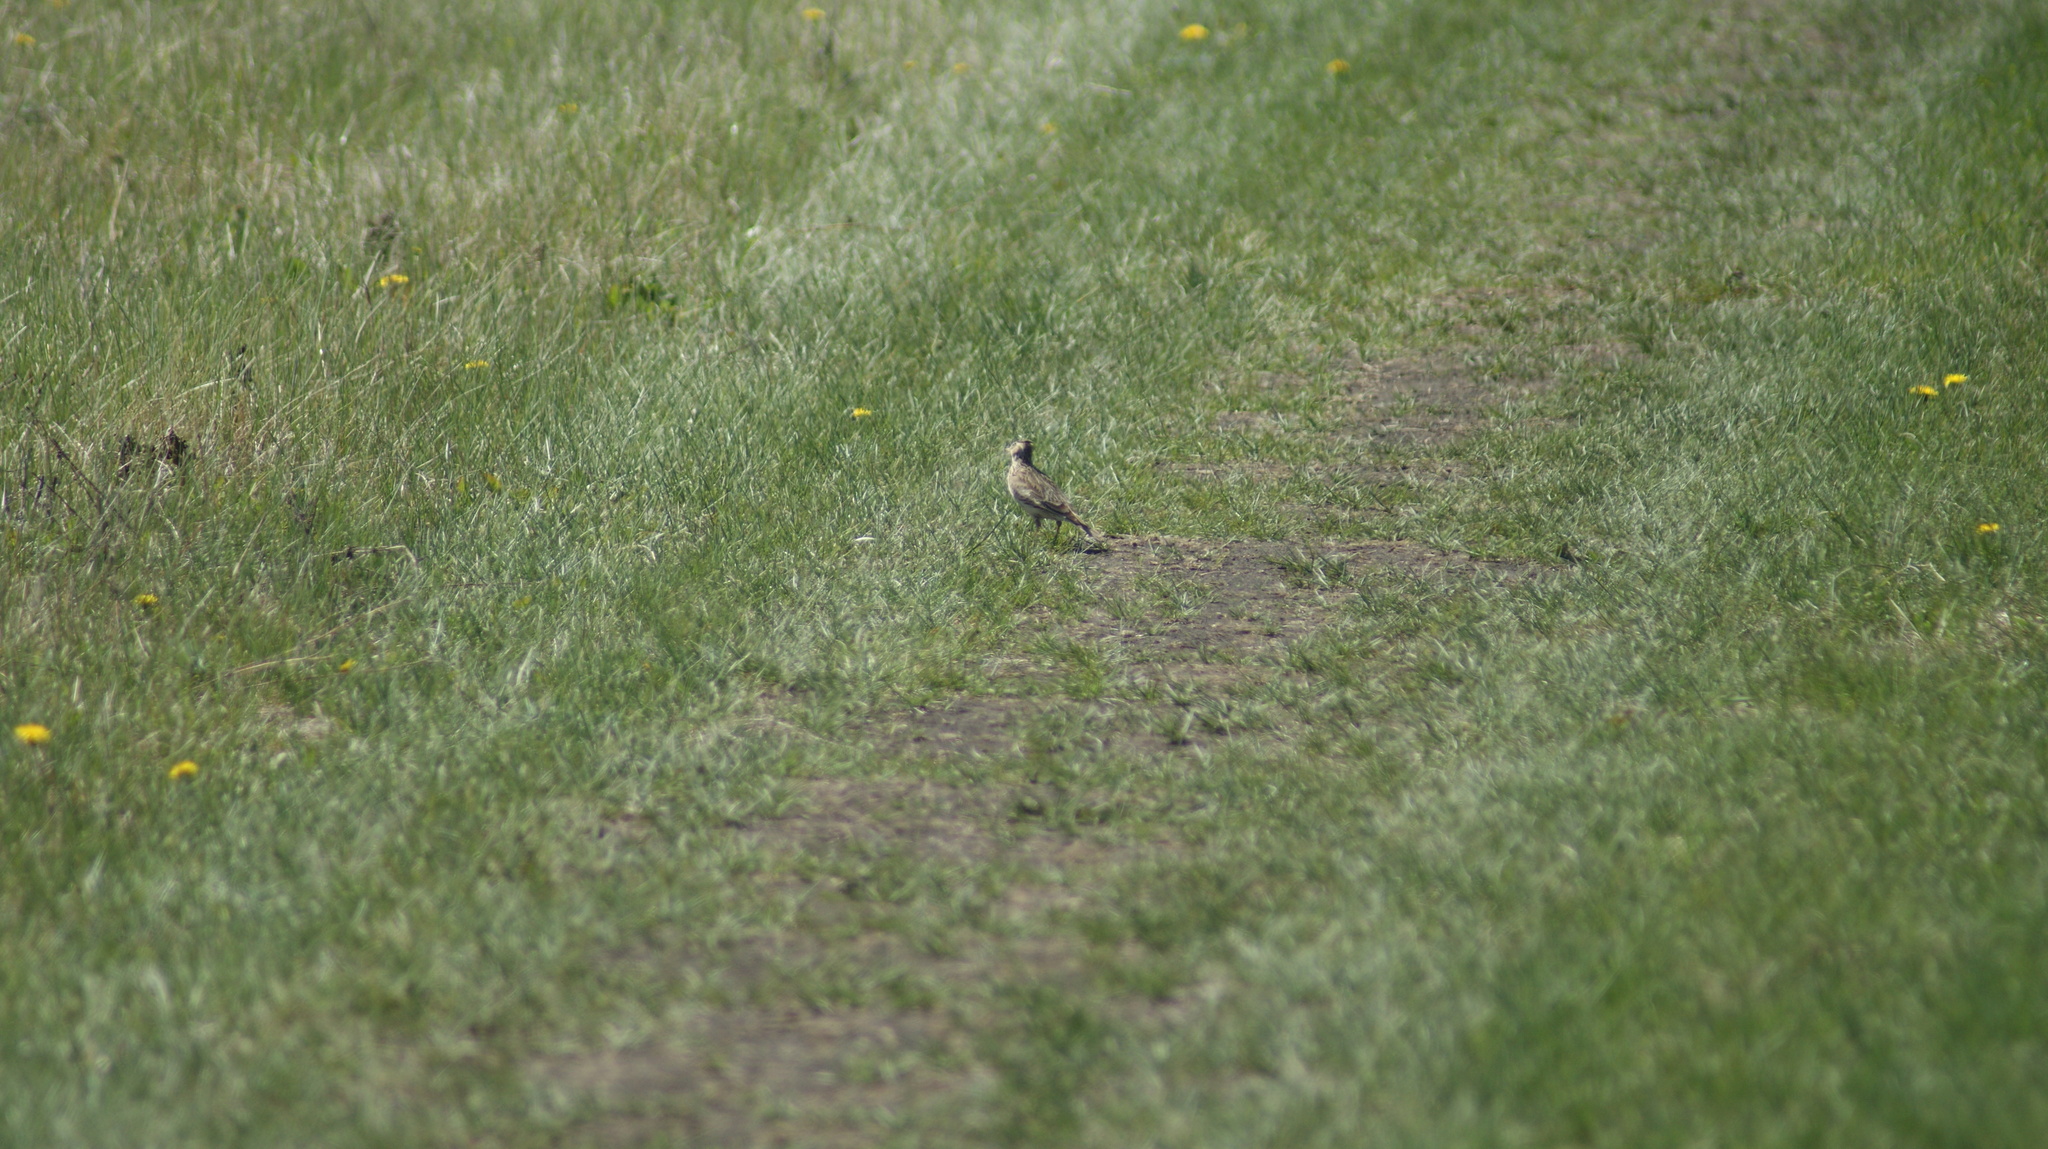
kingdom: Animalia
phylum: Chordata
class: Aves
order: Passeriformes
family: Alaudidae
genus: Alauda
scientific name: Alauda arvensis
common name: Eurasian skylark
